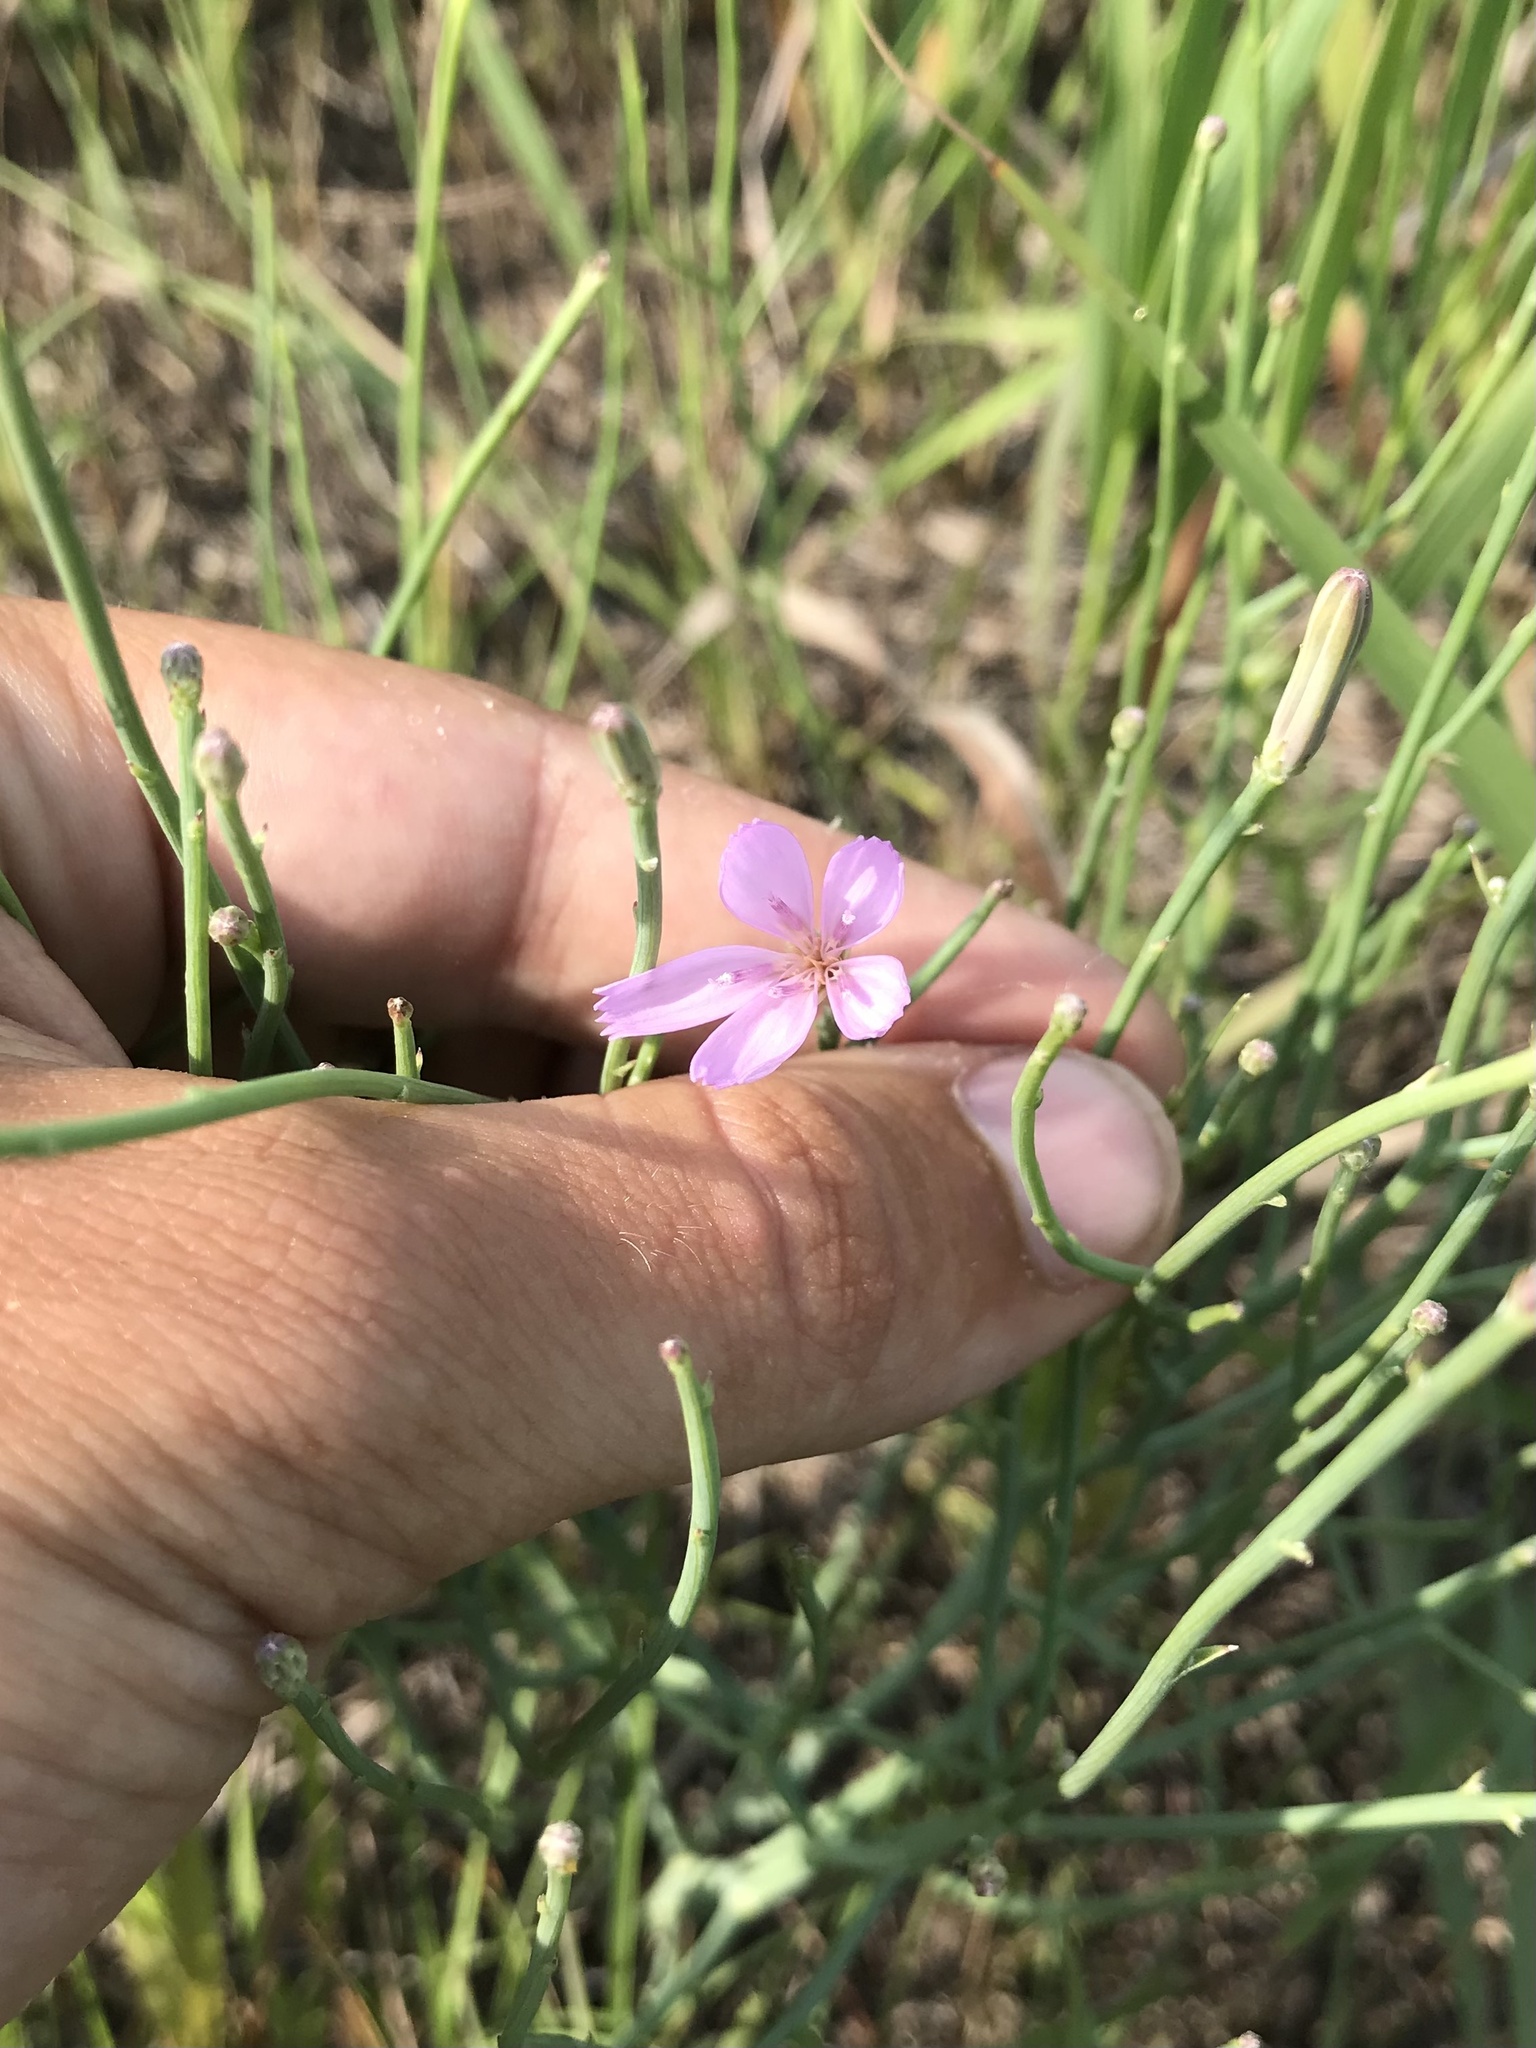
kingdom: Plantae
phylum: Tracheophyta
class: Magnoliopsida
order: Asterales
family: Asteraceae
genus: Lygodesmia
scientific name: Lygodesmia juncea
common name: Common skeletonweed
